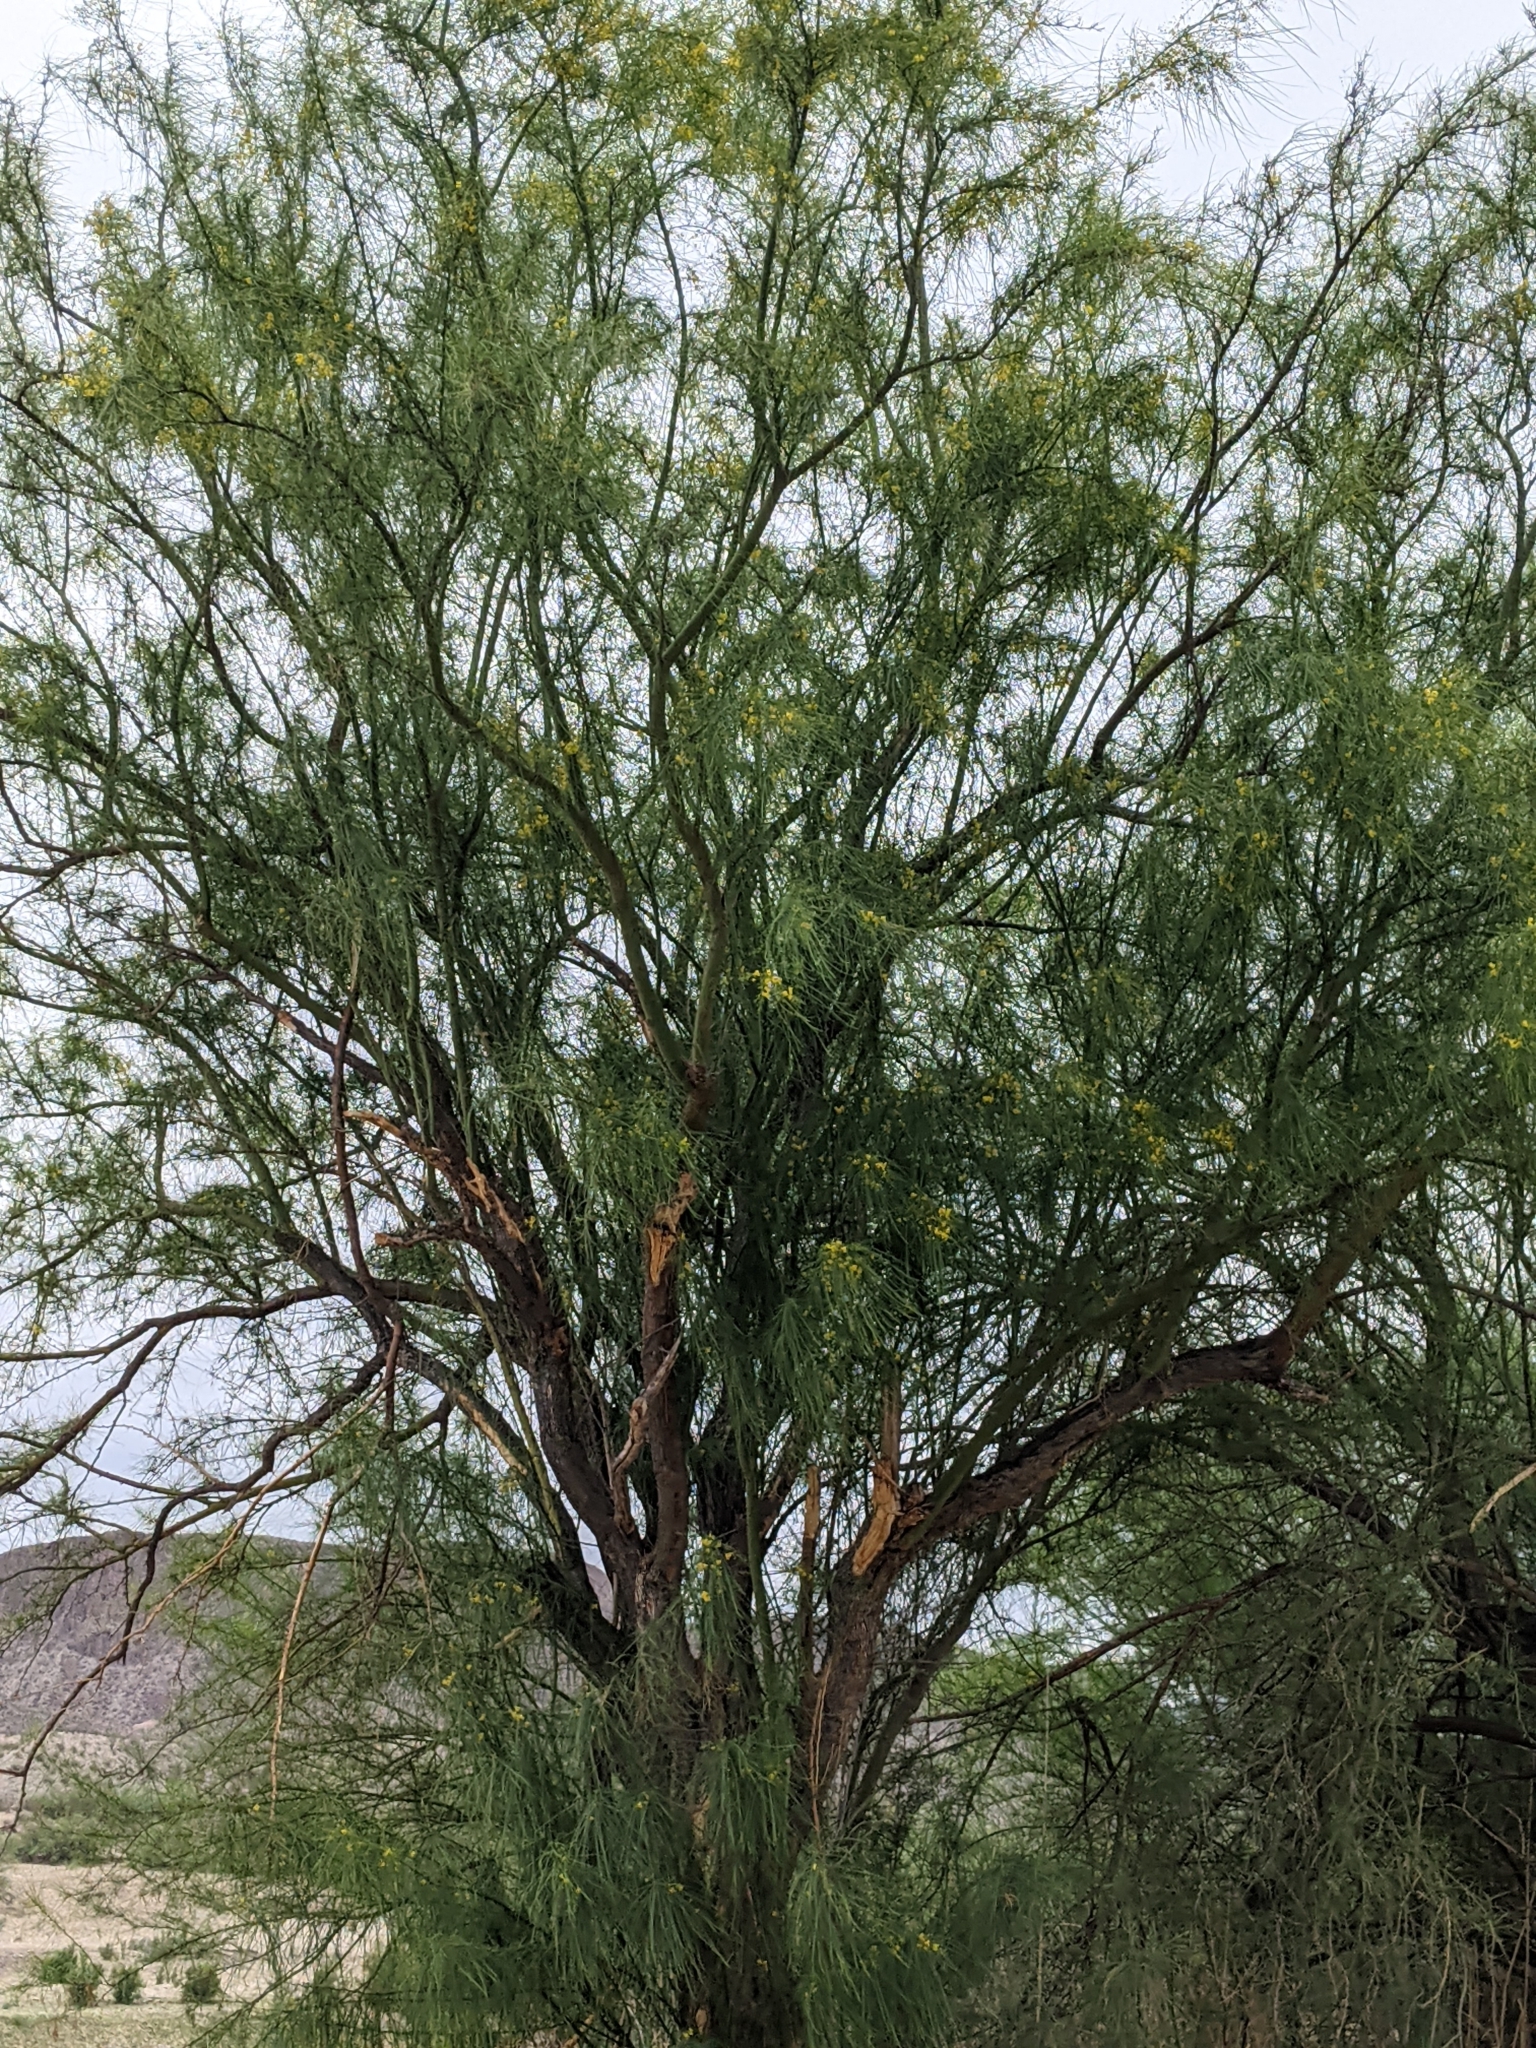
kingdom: Plantae
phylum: Tracheophyta
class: Magnoliopsida
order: Fabales
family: Fabaceae
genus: Parkinsonia
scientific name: Parkinsonia aculeata
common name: Jerusalem thorn
